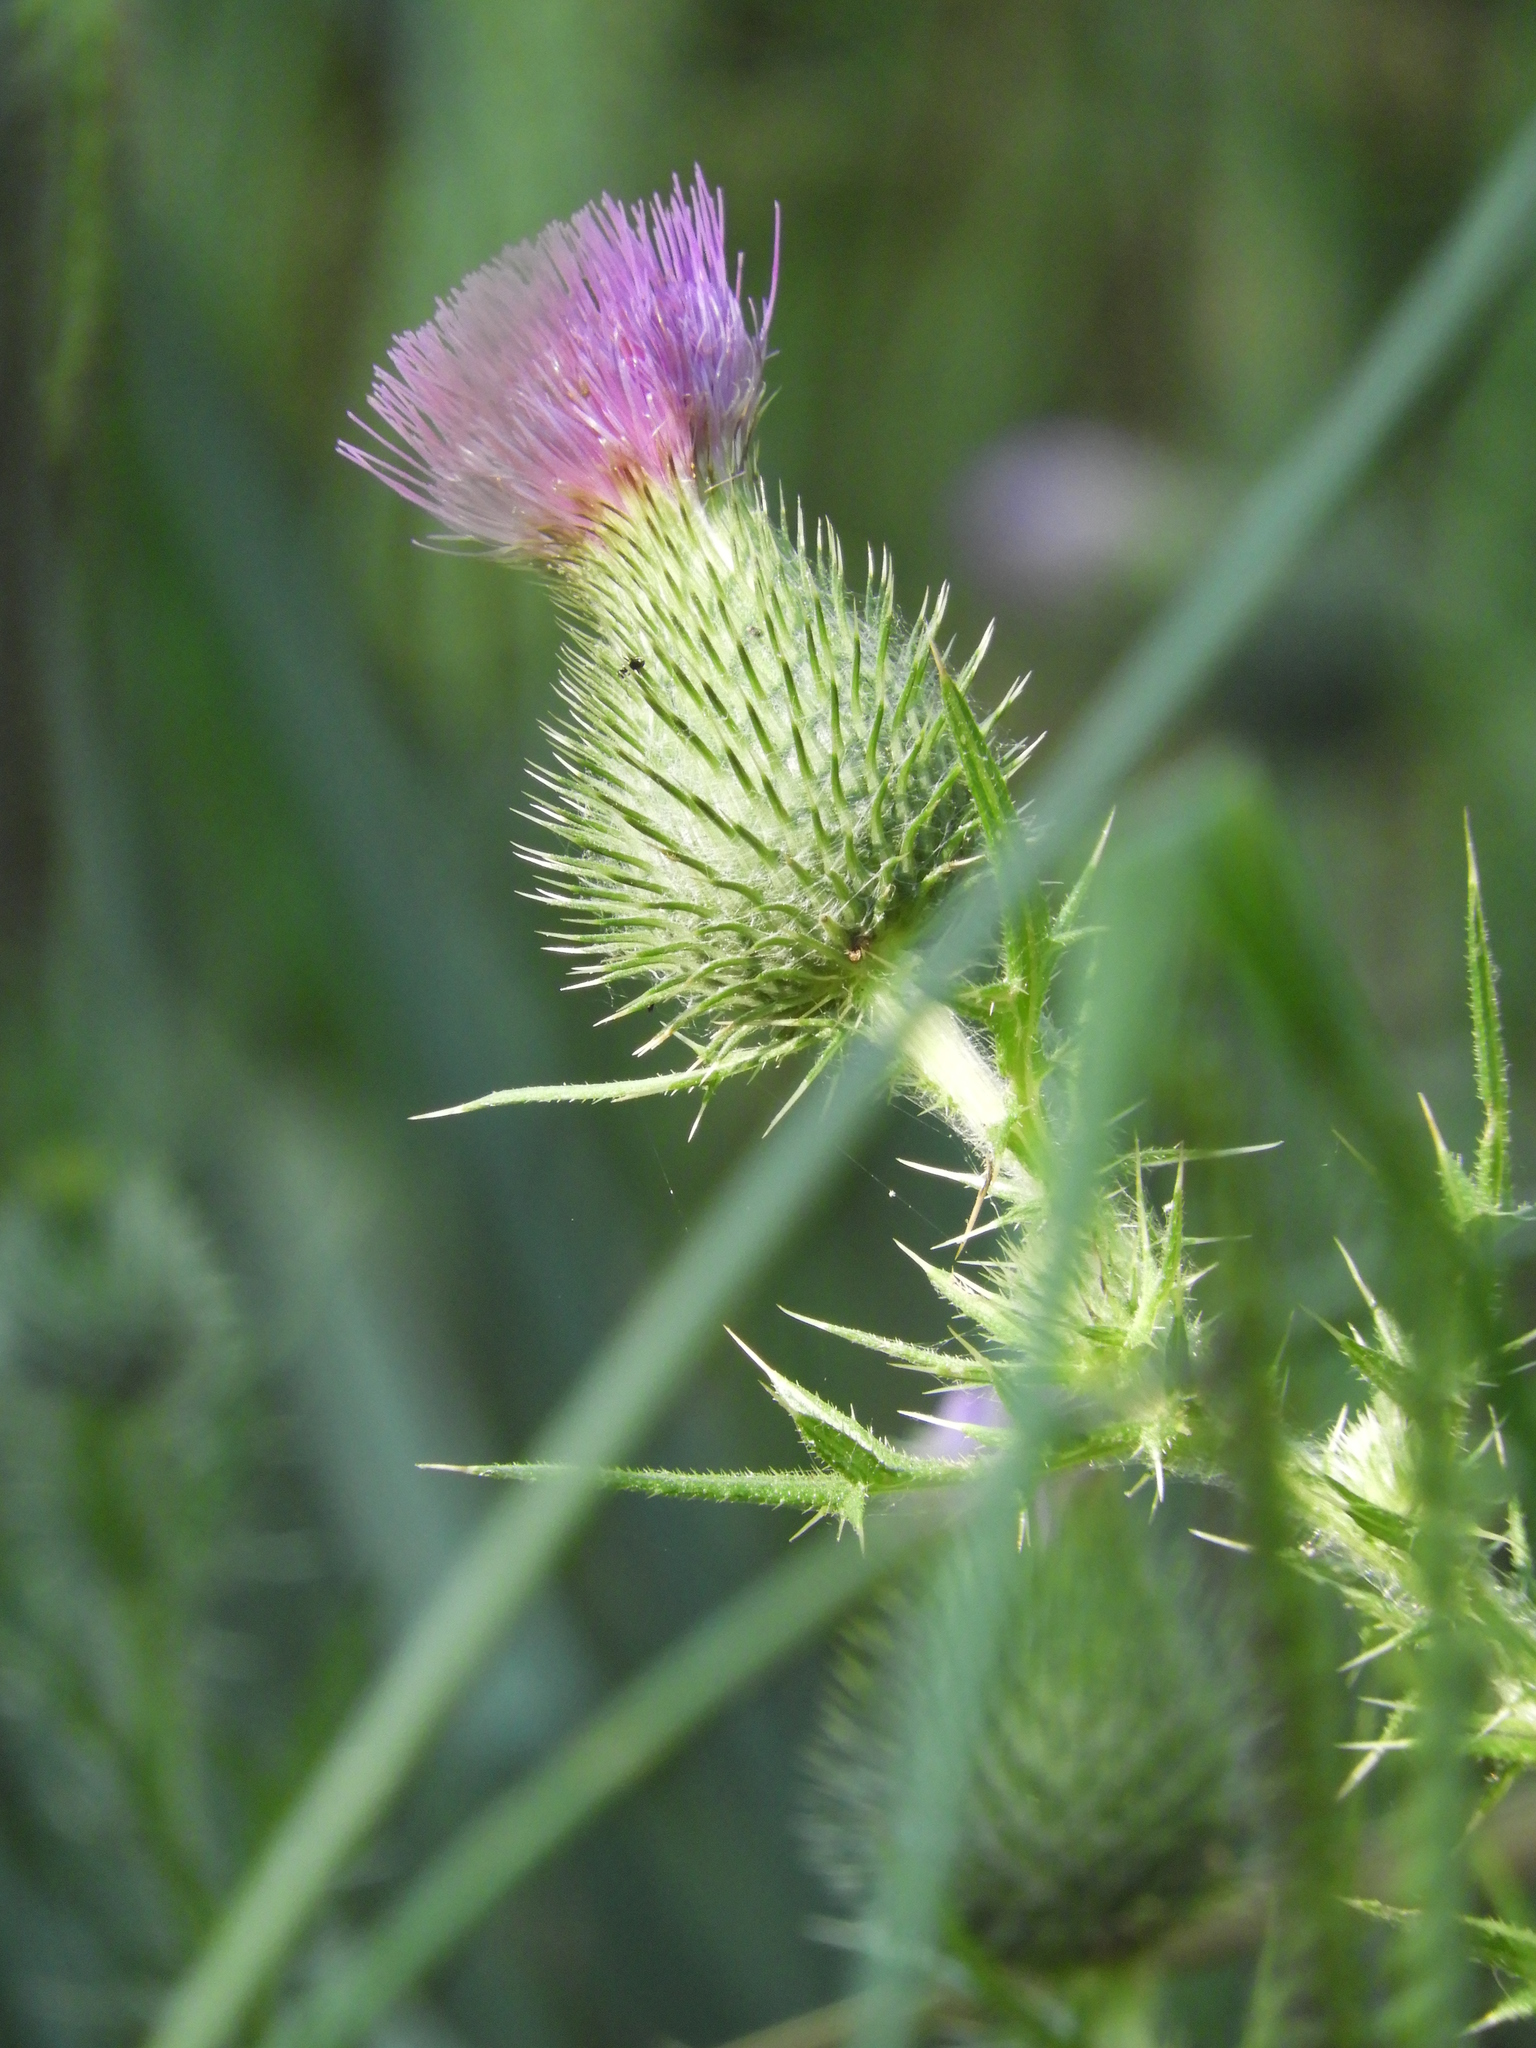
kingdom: Plantae
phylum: Tracheophyta
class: Magnoliopsida
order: Asterales
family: Asteraceae
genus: Cirsium
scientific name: Cirsium vulgare
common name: Bull thistle
